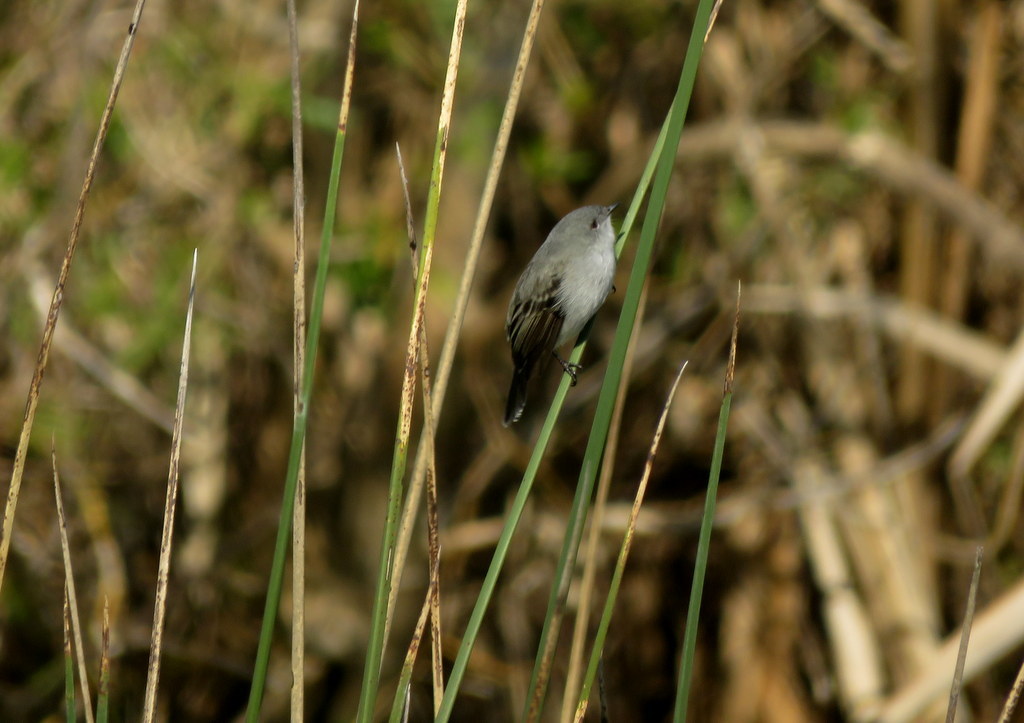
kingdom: Animalia
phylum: Chordata
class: Aves
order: Passeriformes
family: Tyrannidae
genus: Serpophaga
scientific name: Serpophaga nigricans
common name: Sooty tyrannulet
